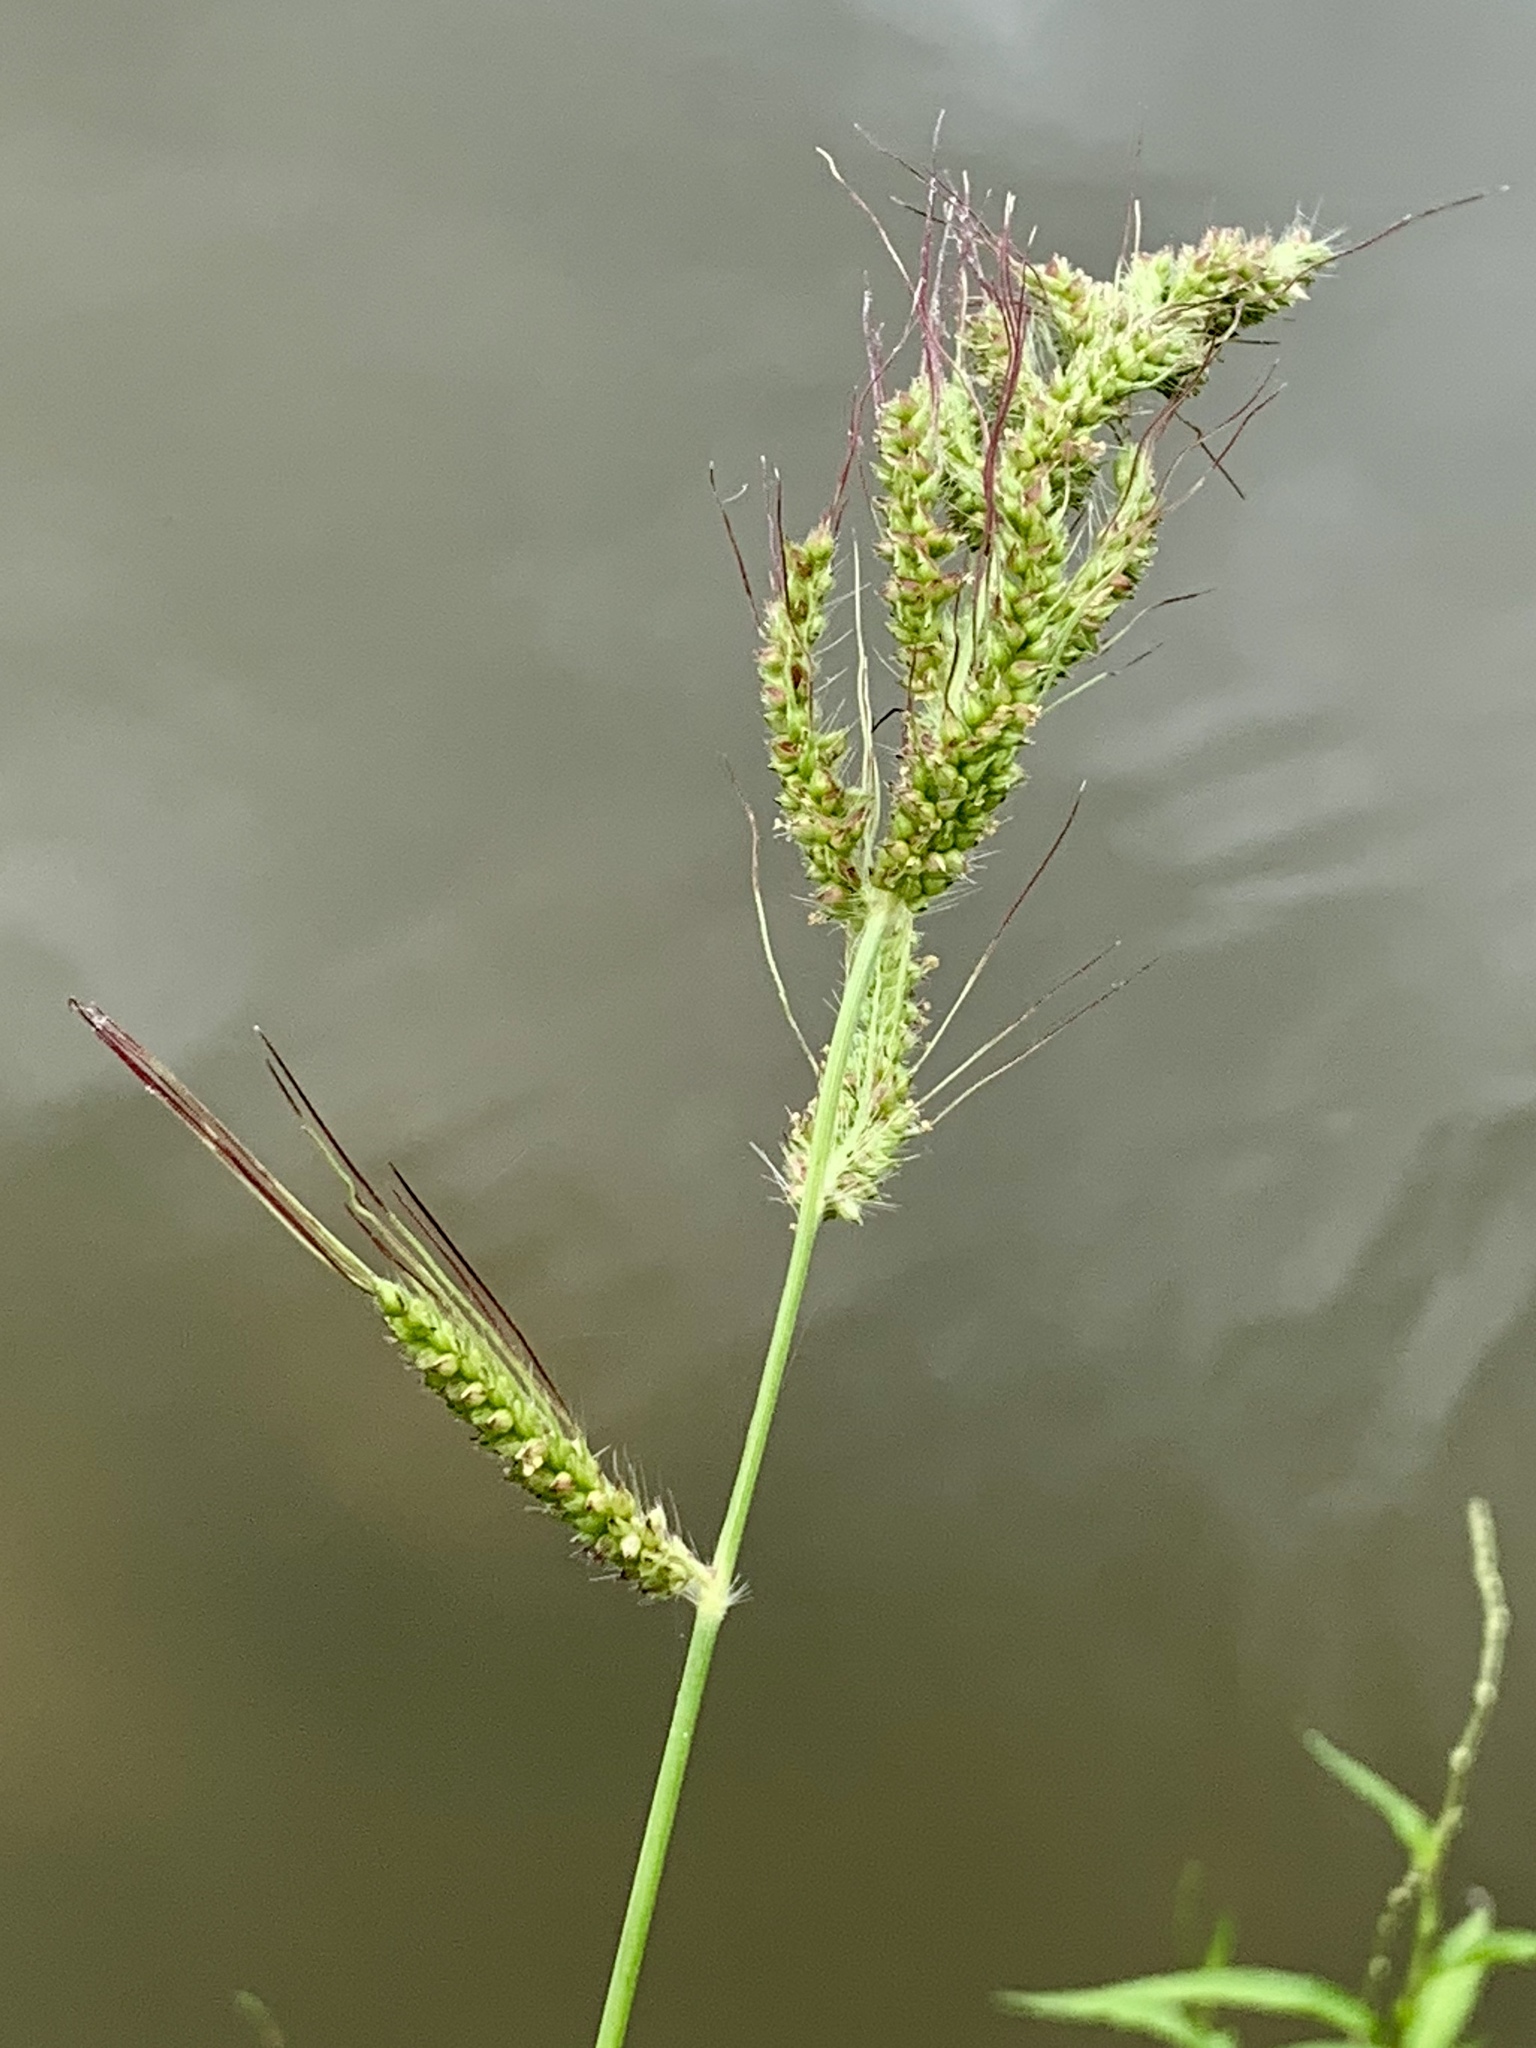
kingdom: Plantae
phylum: Tracheophyta
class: Liliopsida
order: Poales
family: Poaceae
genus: Echinochloa
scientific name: Echinochloa
